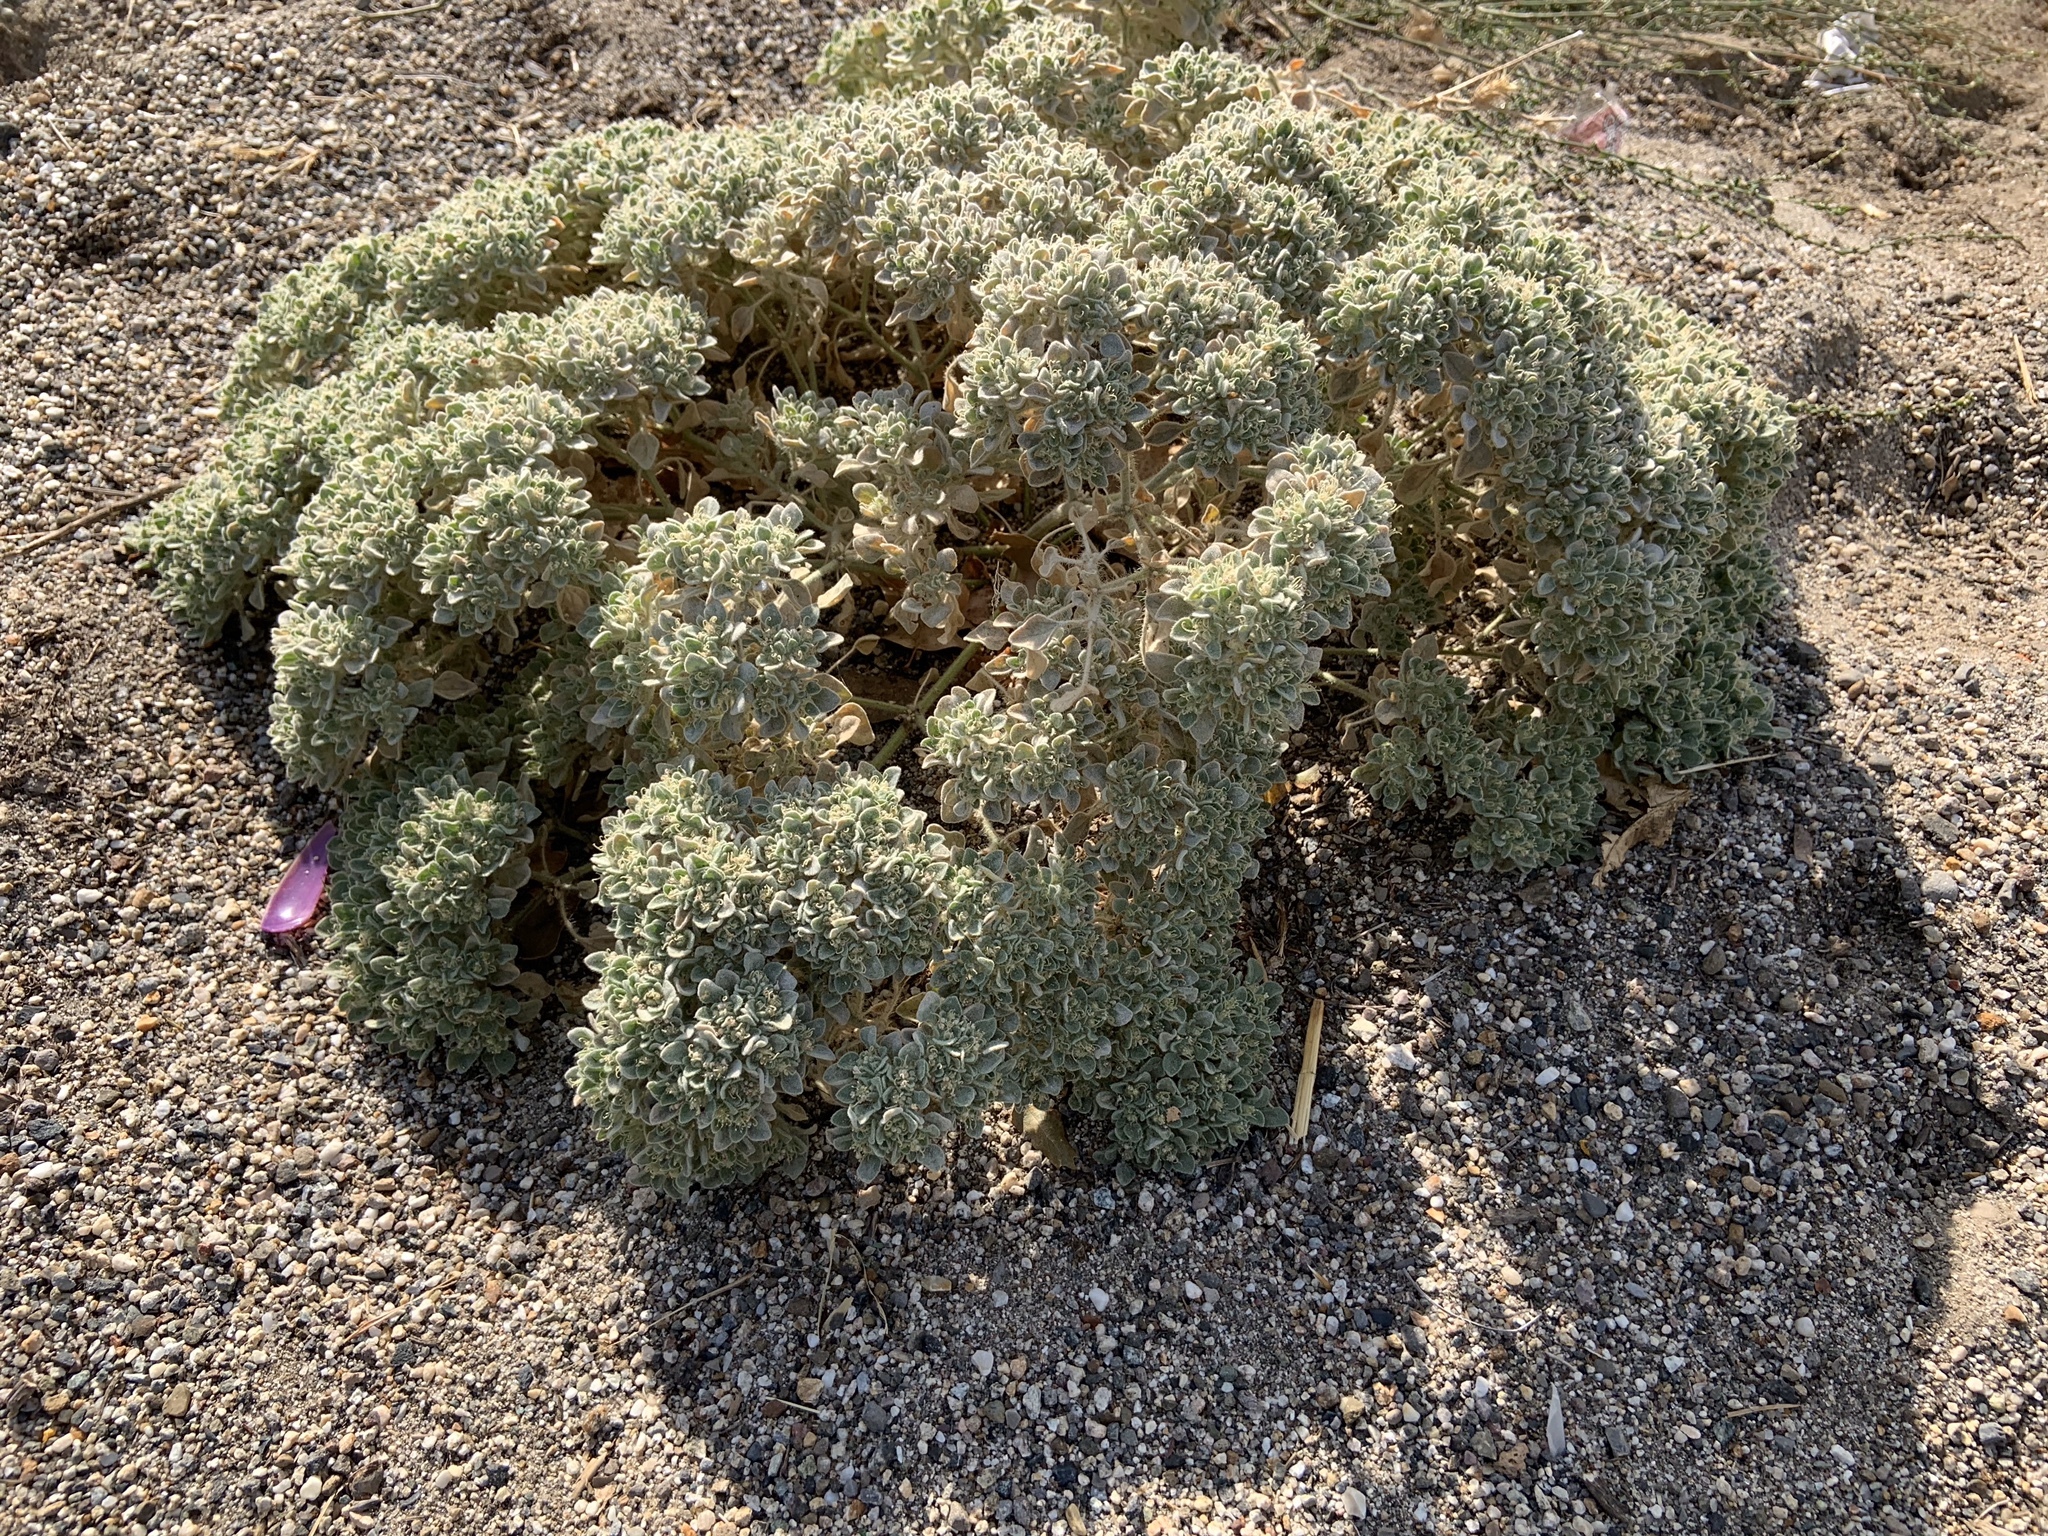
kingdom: Plantae
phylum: Tracheophyta
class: Magnoliopsida
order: Malpighiales
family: Euphorbiaceae
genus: Croton
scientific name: Croton setiger
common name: Dove weed
